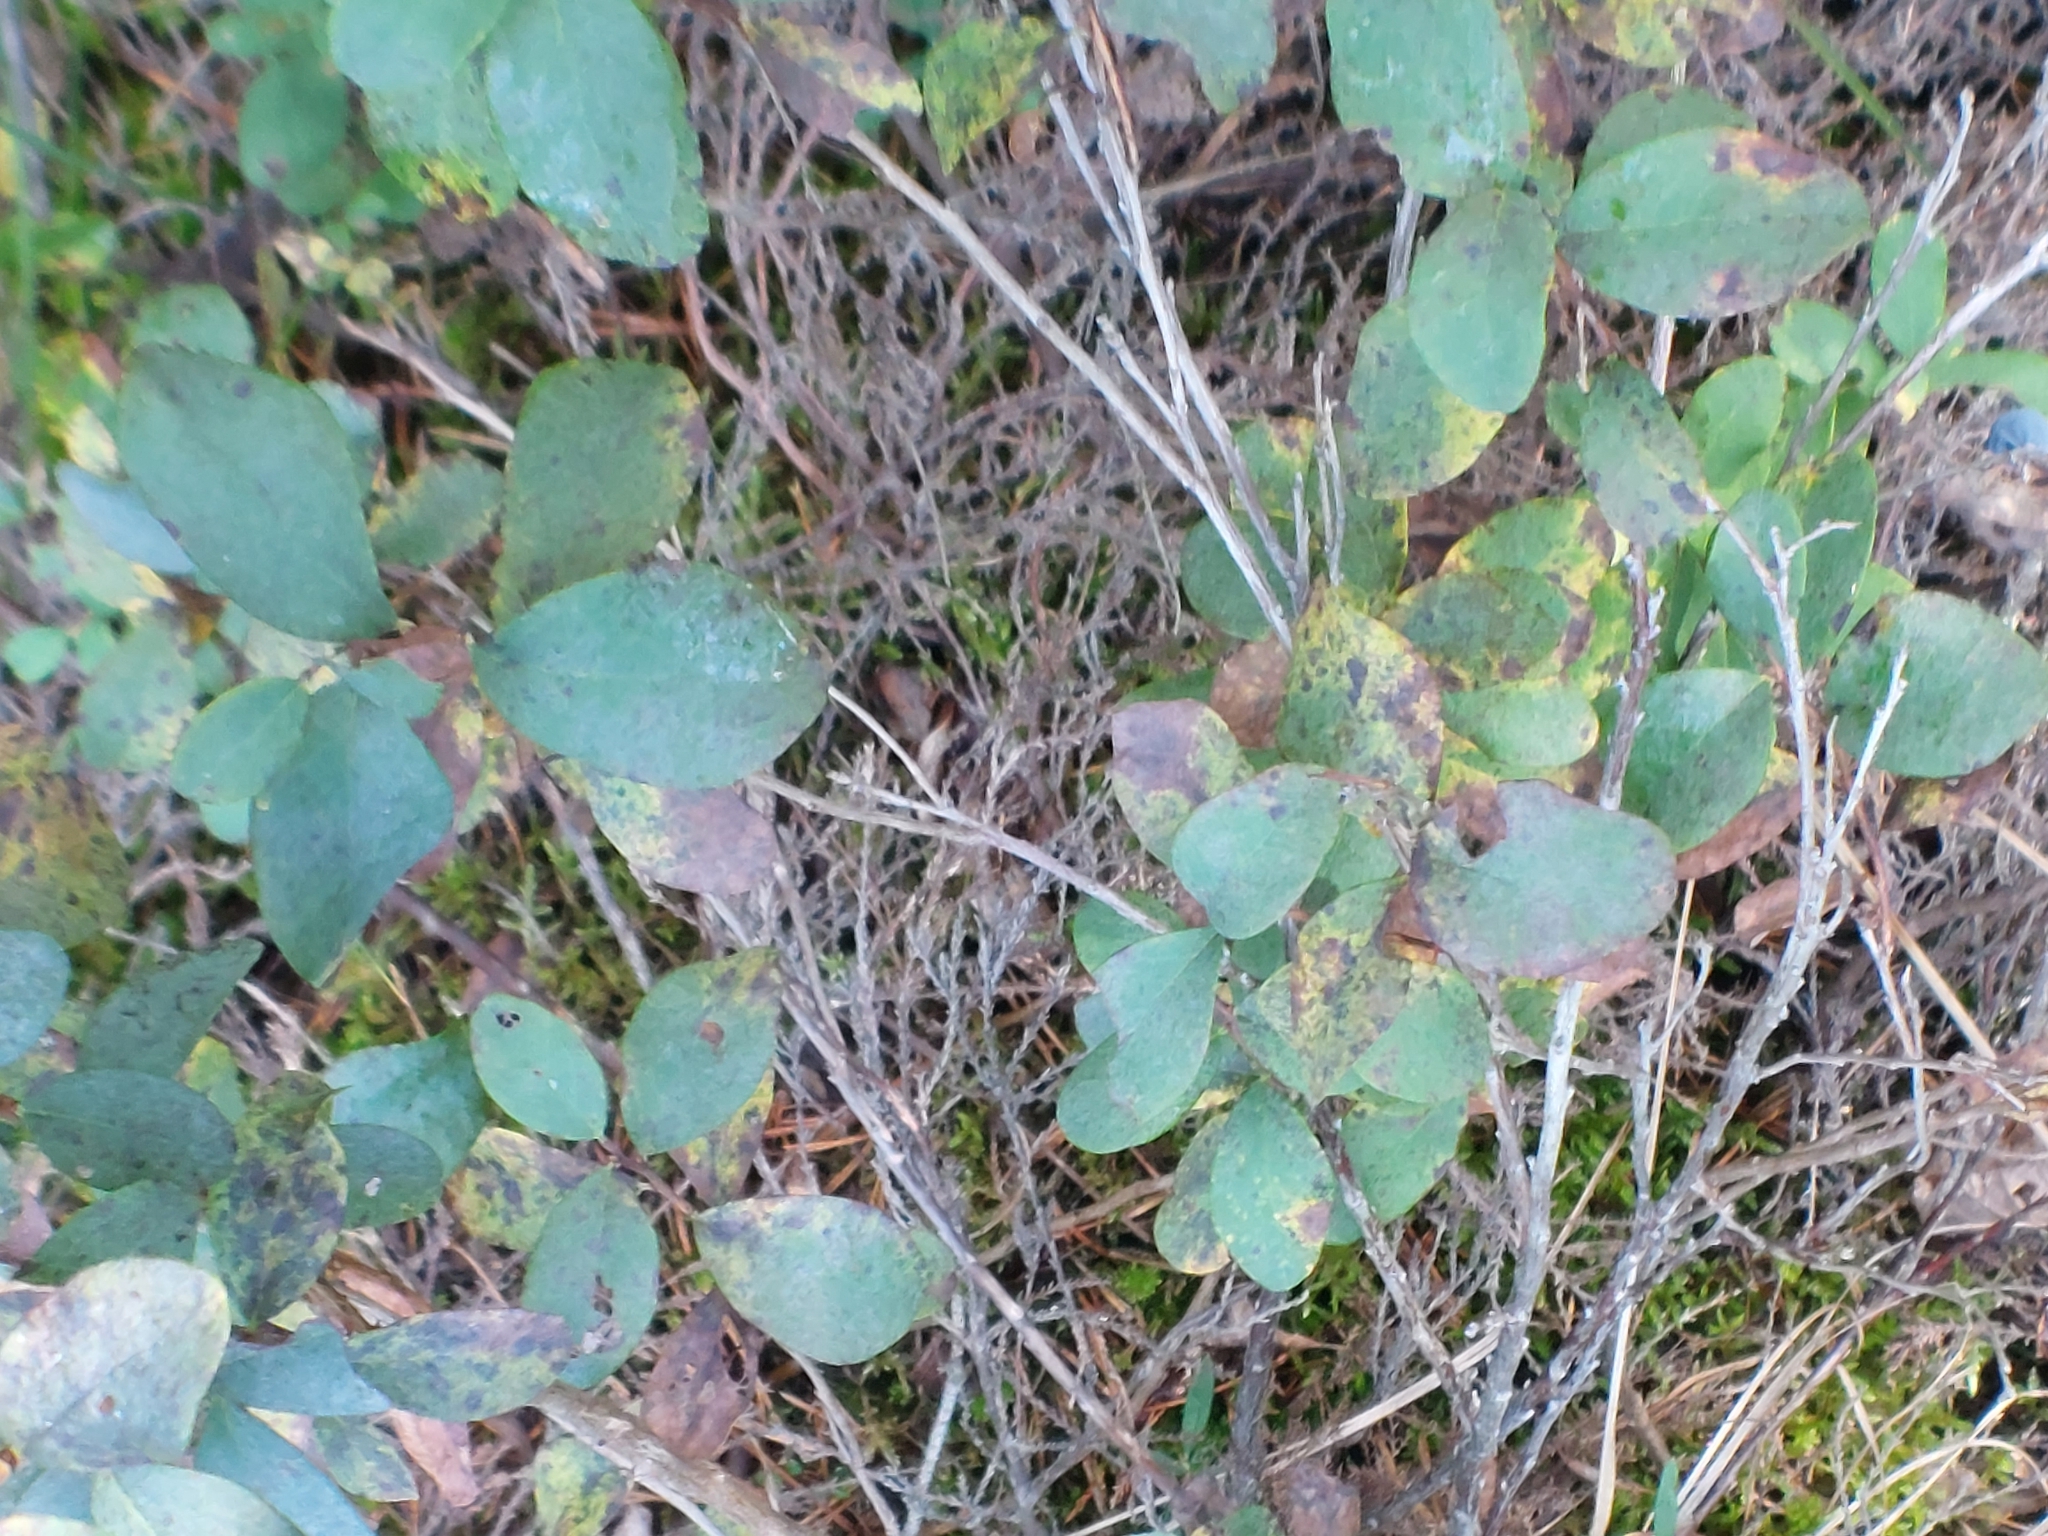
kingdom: Plantae
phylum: Tracheophyta
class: Magnoliopsida
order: Ericales
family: Ericaceae
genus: Vaccinium
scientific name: Vaccinium uliginosum
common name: Bog bilberry
